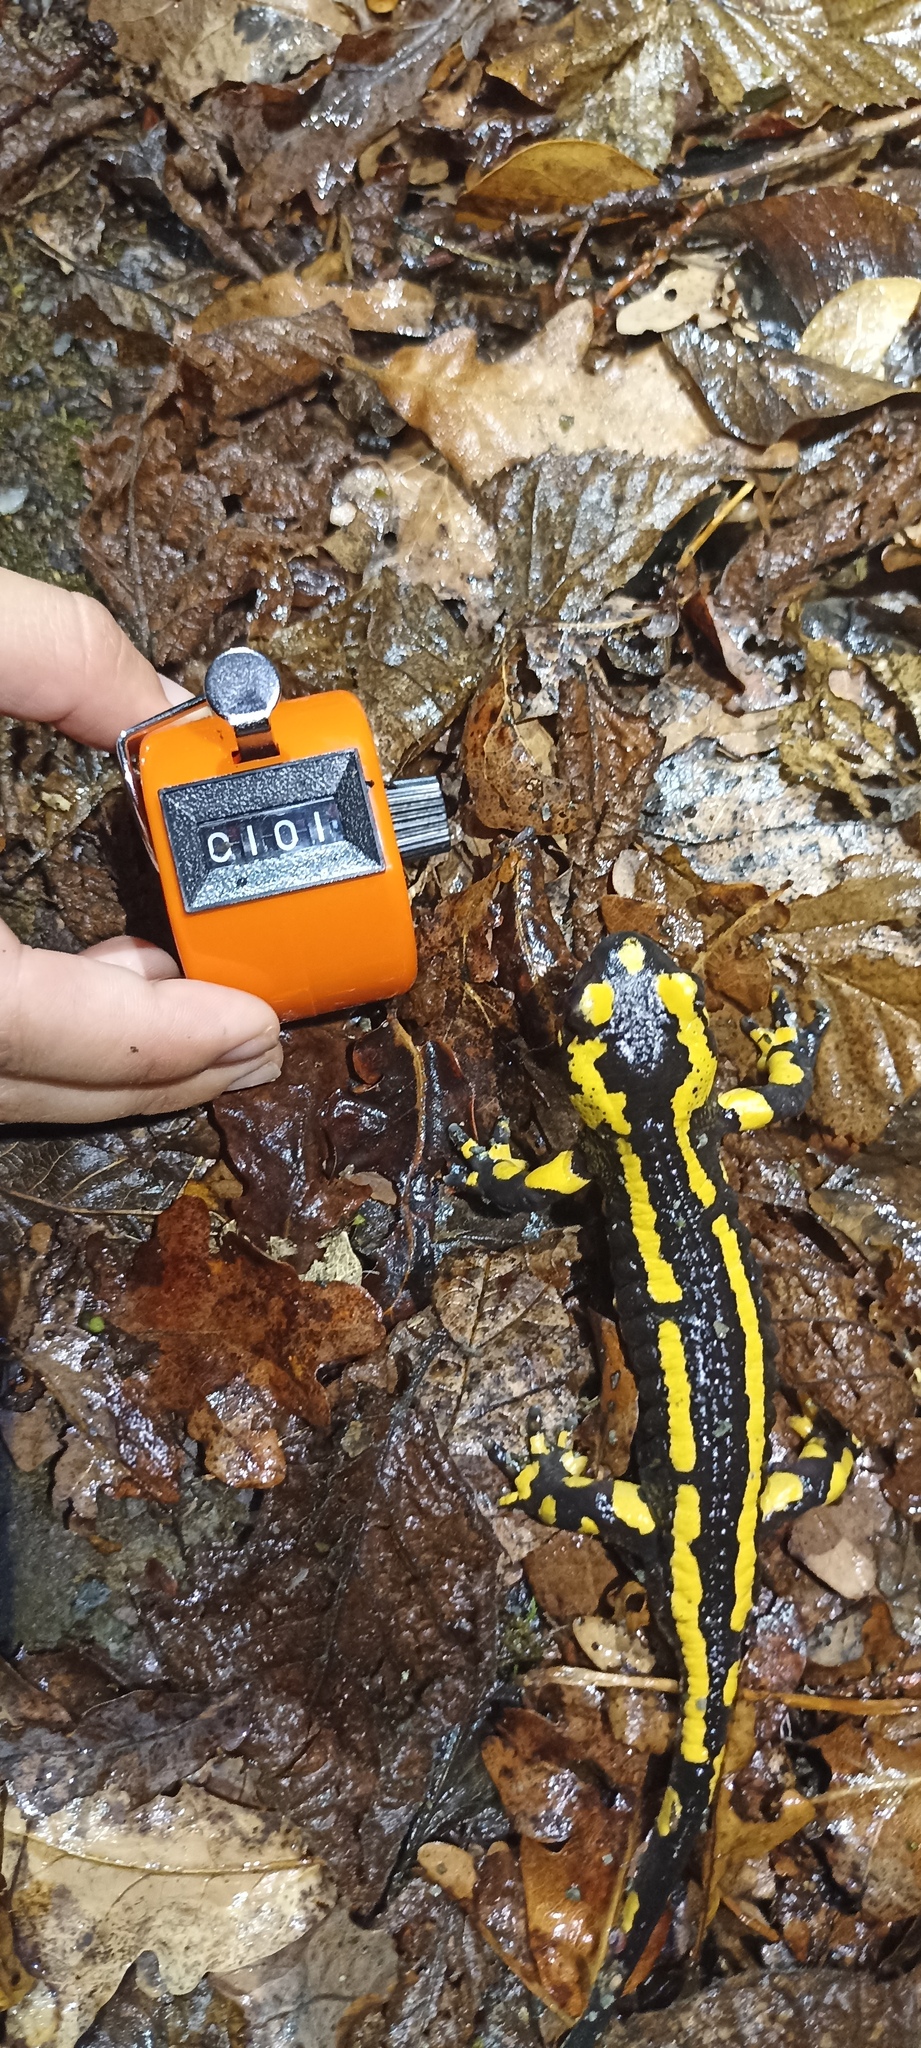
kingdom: Animalia
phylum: Chordata
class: Amphibia
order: Caudata
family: Salamandridae
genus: Salamandra
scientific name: Salamandra salamandra
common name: Fire salamander
